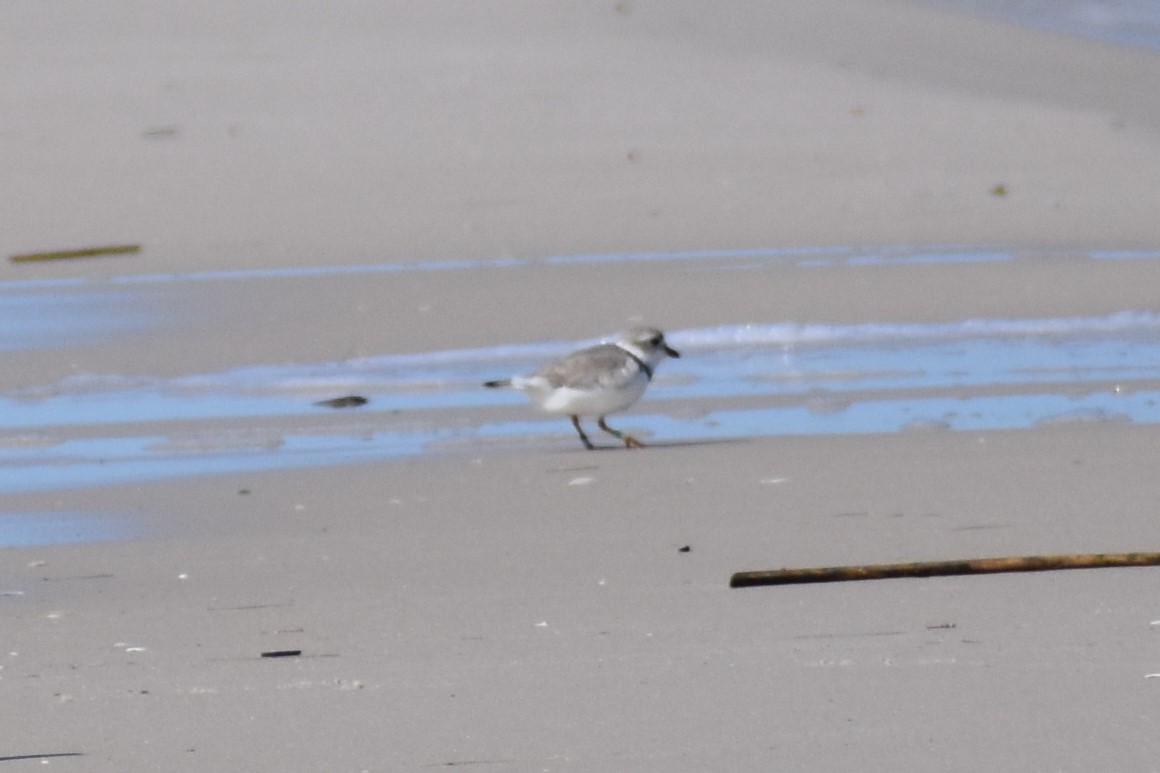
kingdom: Animalia
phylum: Chordata
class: Aves
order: Charadriiformes
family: Charadriidae
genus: Charadrius
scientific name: Charadrius melodus
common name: Piping plover
